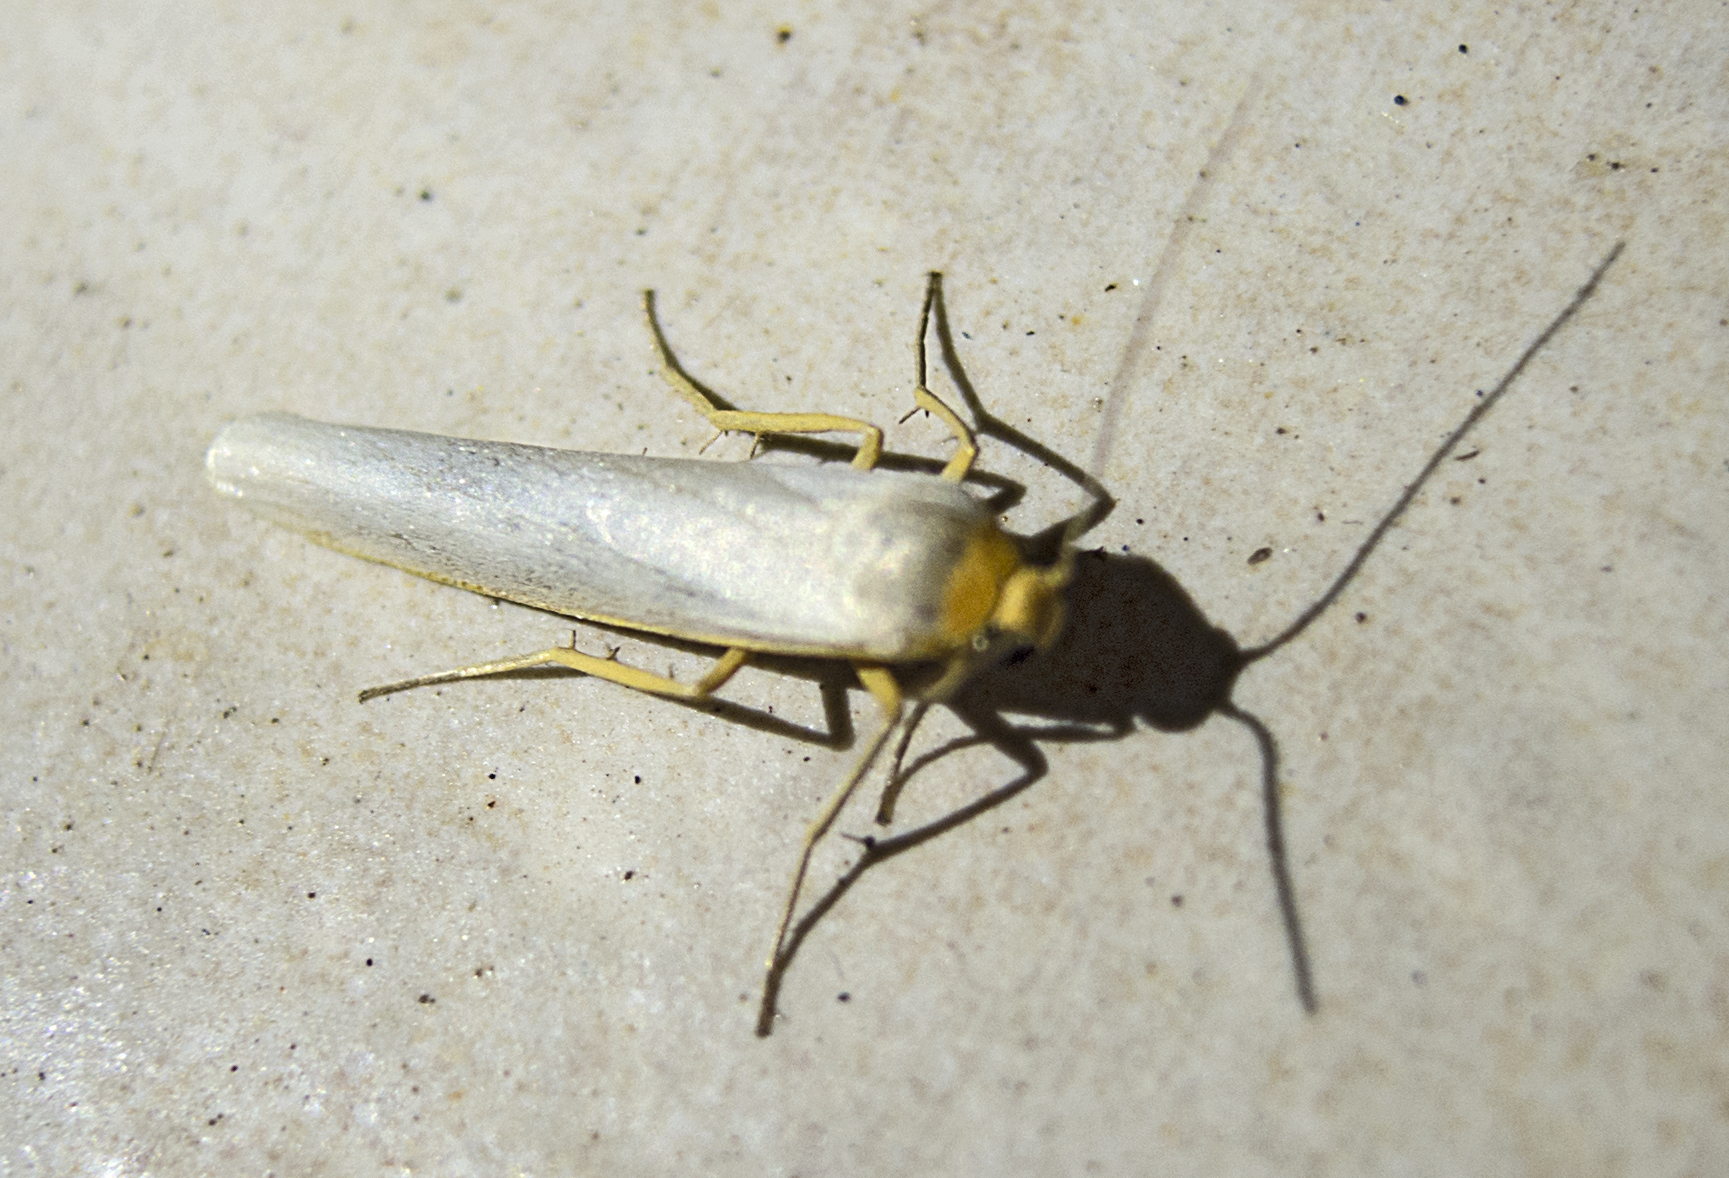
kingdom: Animalia
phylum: Arthropoda
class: Insecta
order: Lepidoptera
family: Erebidae
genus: Eilema
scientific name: Eilema caniola
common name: Hoary footman
